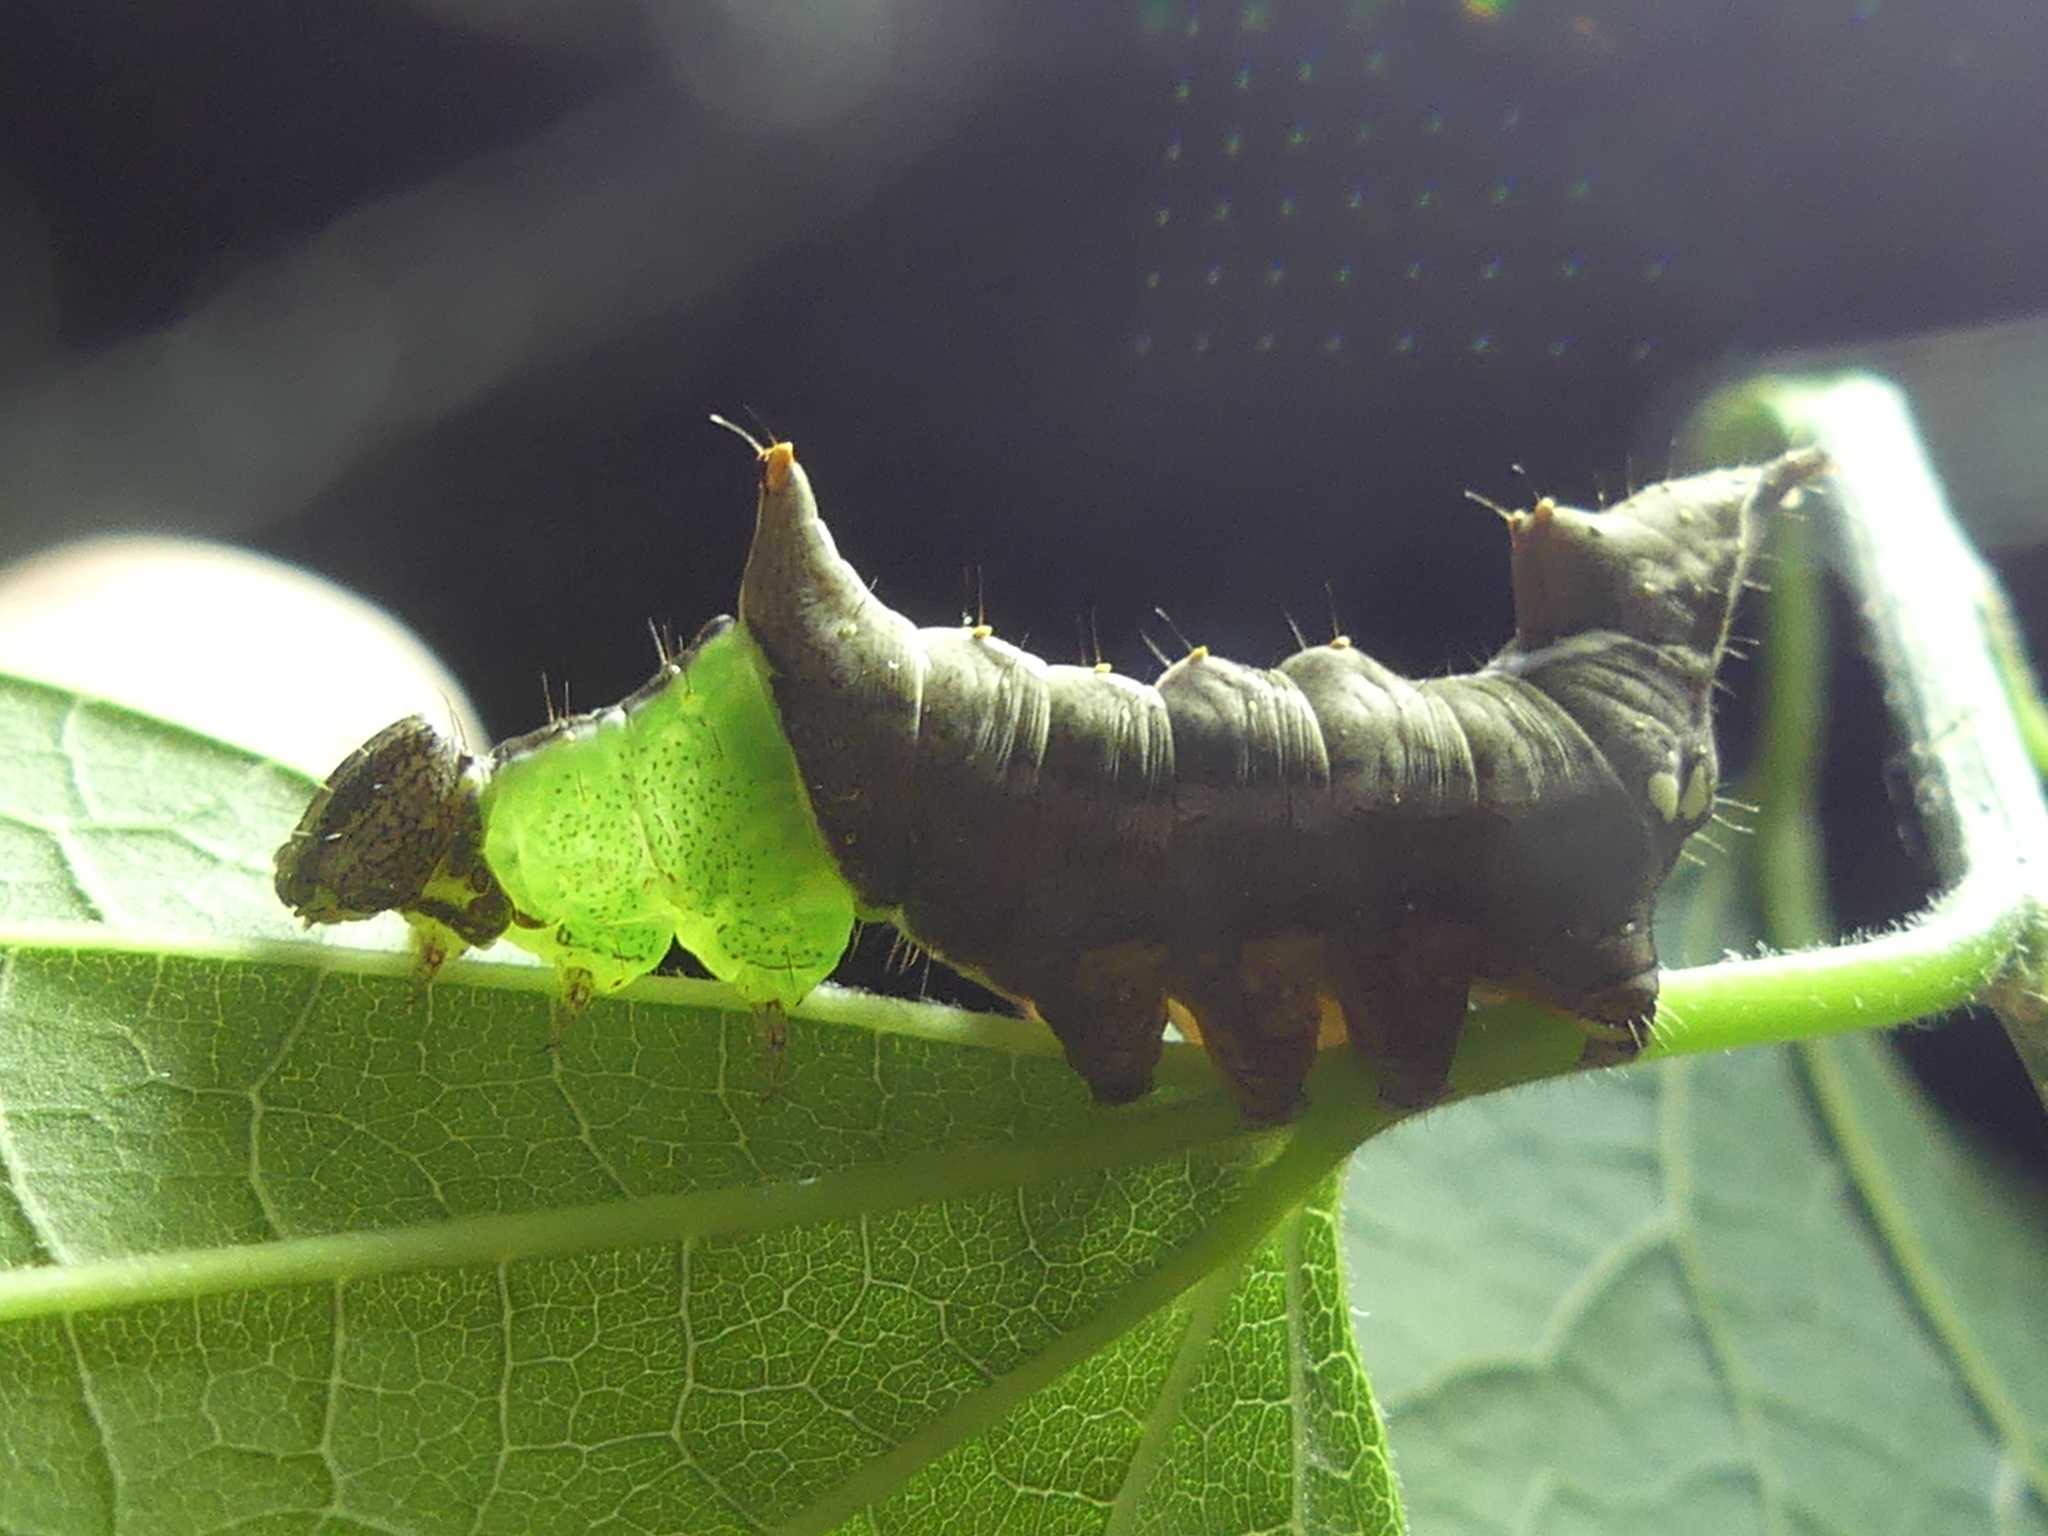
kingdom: Animalia
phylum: Arthropoda
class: Insecta
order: Lepidoptera
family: Notodontidae
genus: Schizura
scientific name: Schizura ipomaeae
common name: Morning-glory prominent
